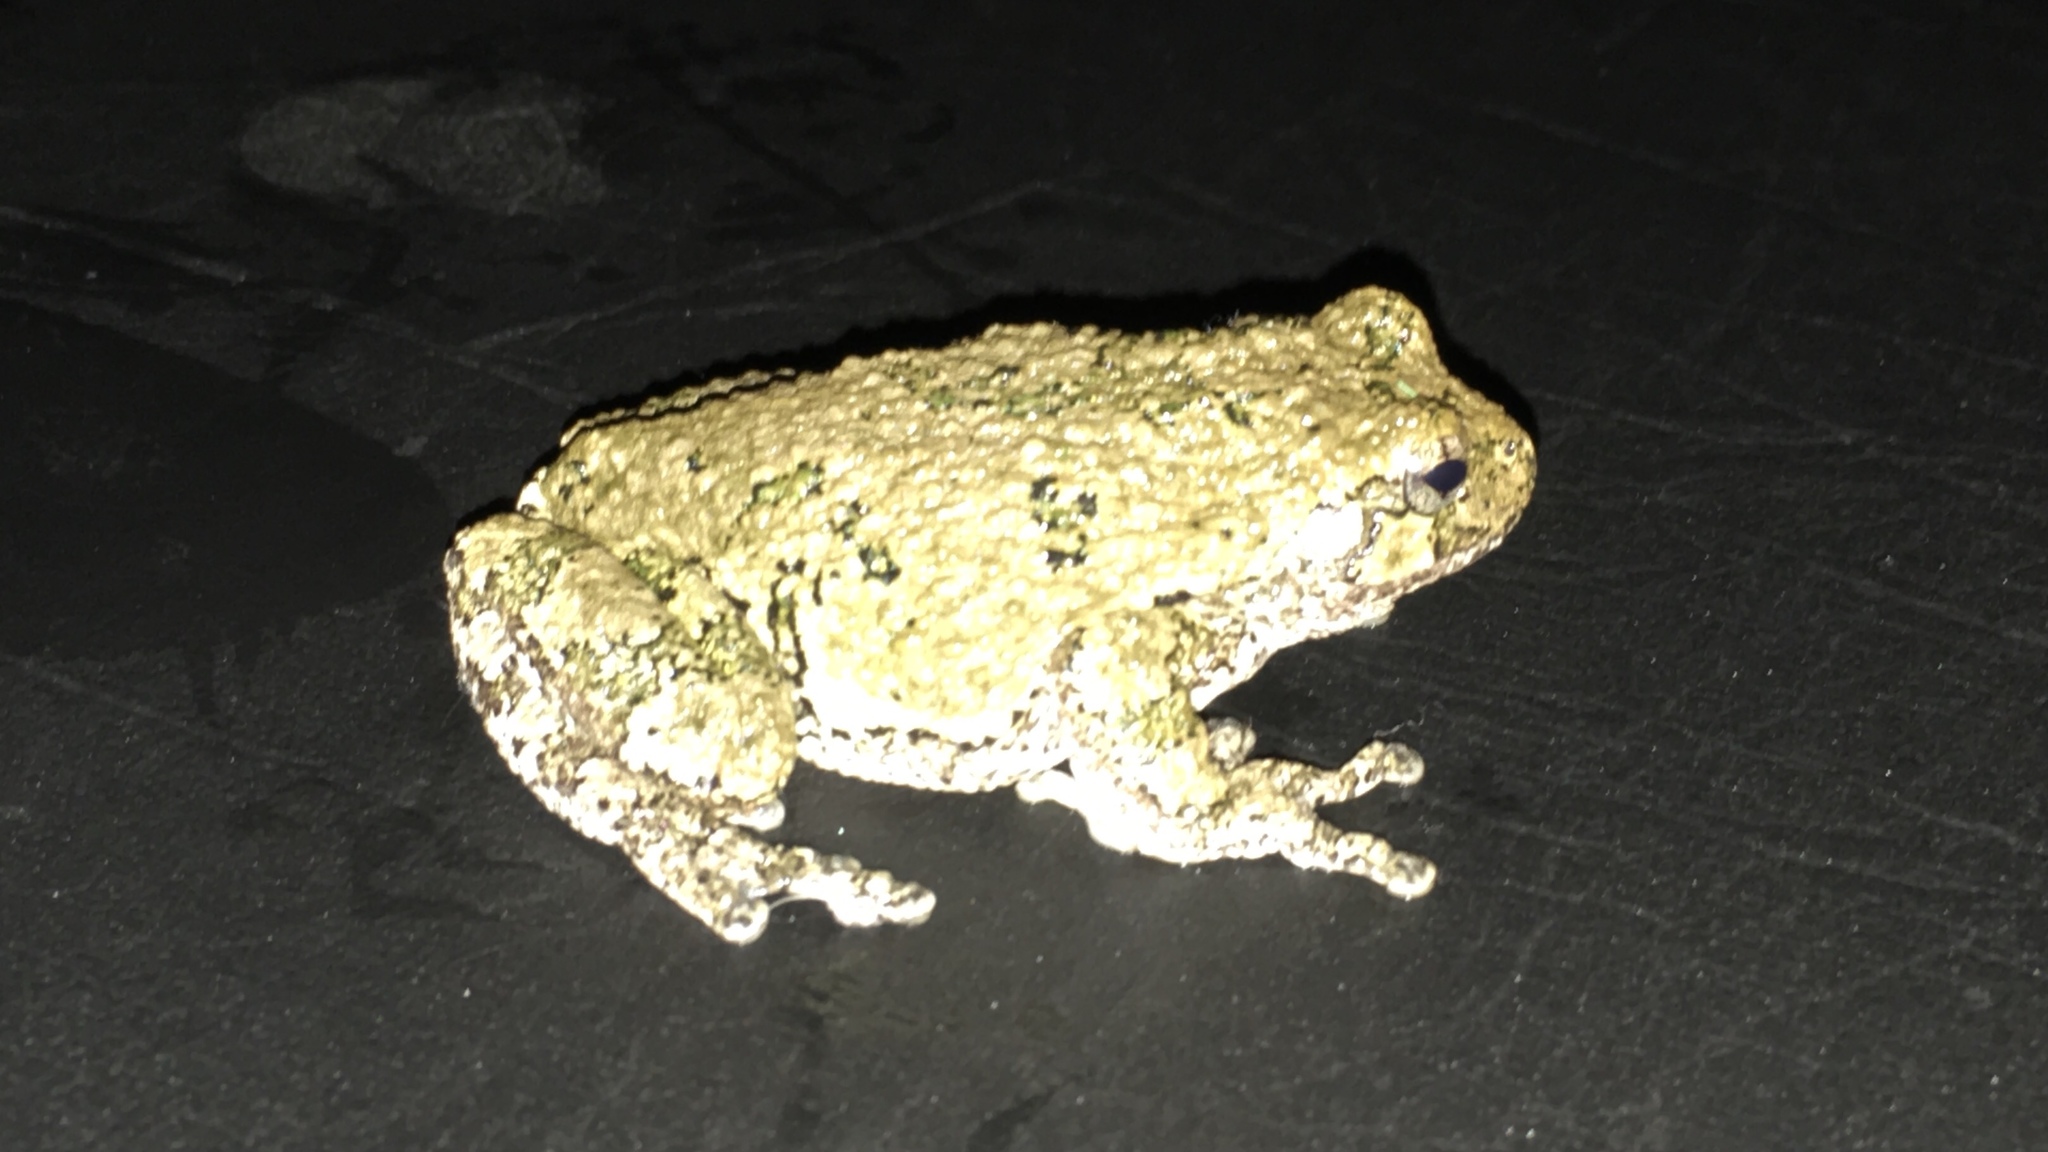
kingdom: Animalia
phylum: Chordata
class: Amphibia
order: Anura
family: Hylidae
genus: Dryophytes
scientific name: Dryophytes versicolor
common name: Gray treefrog
